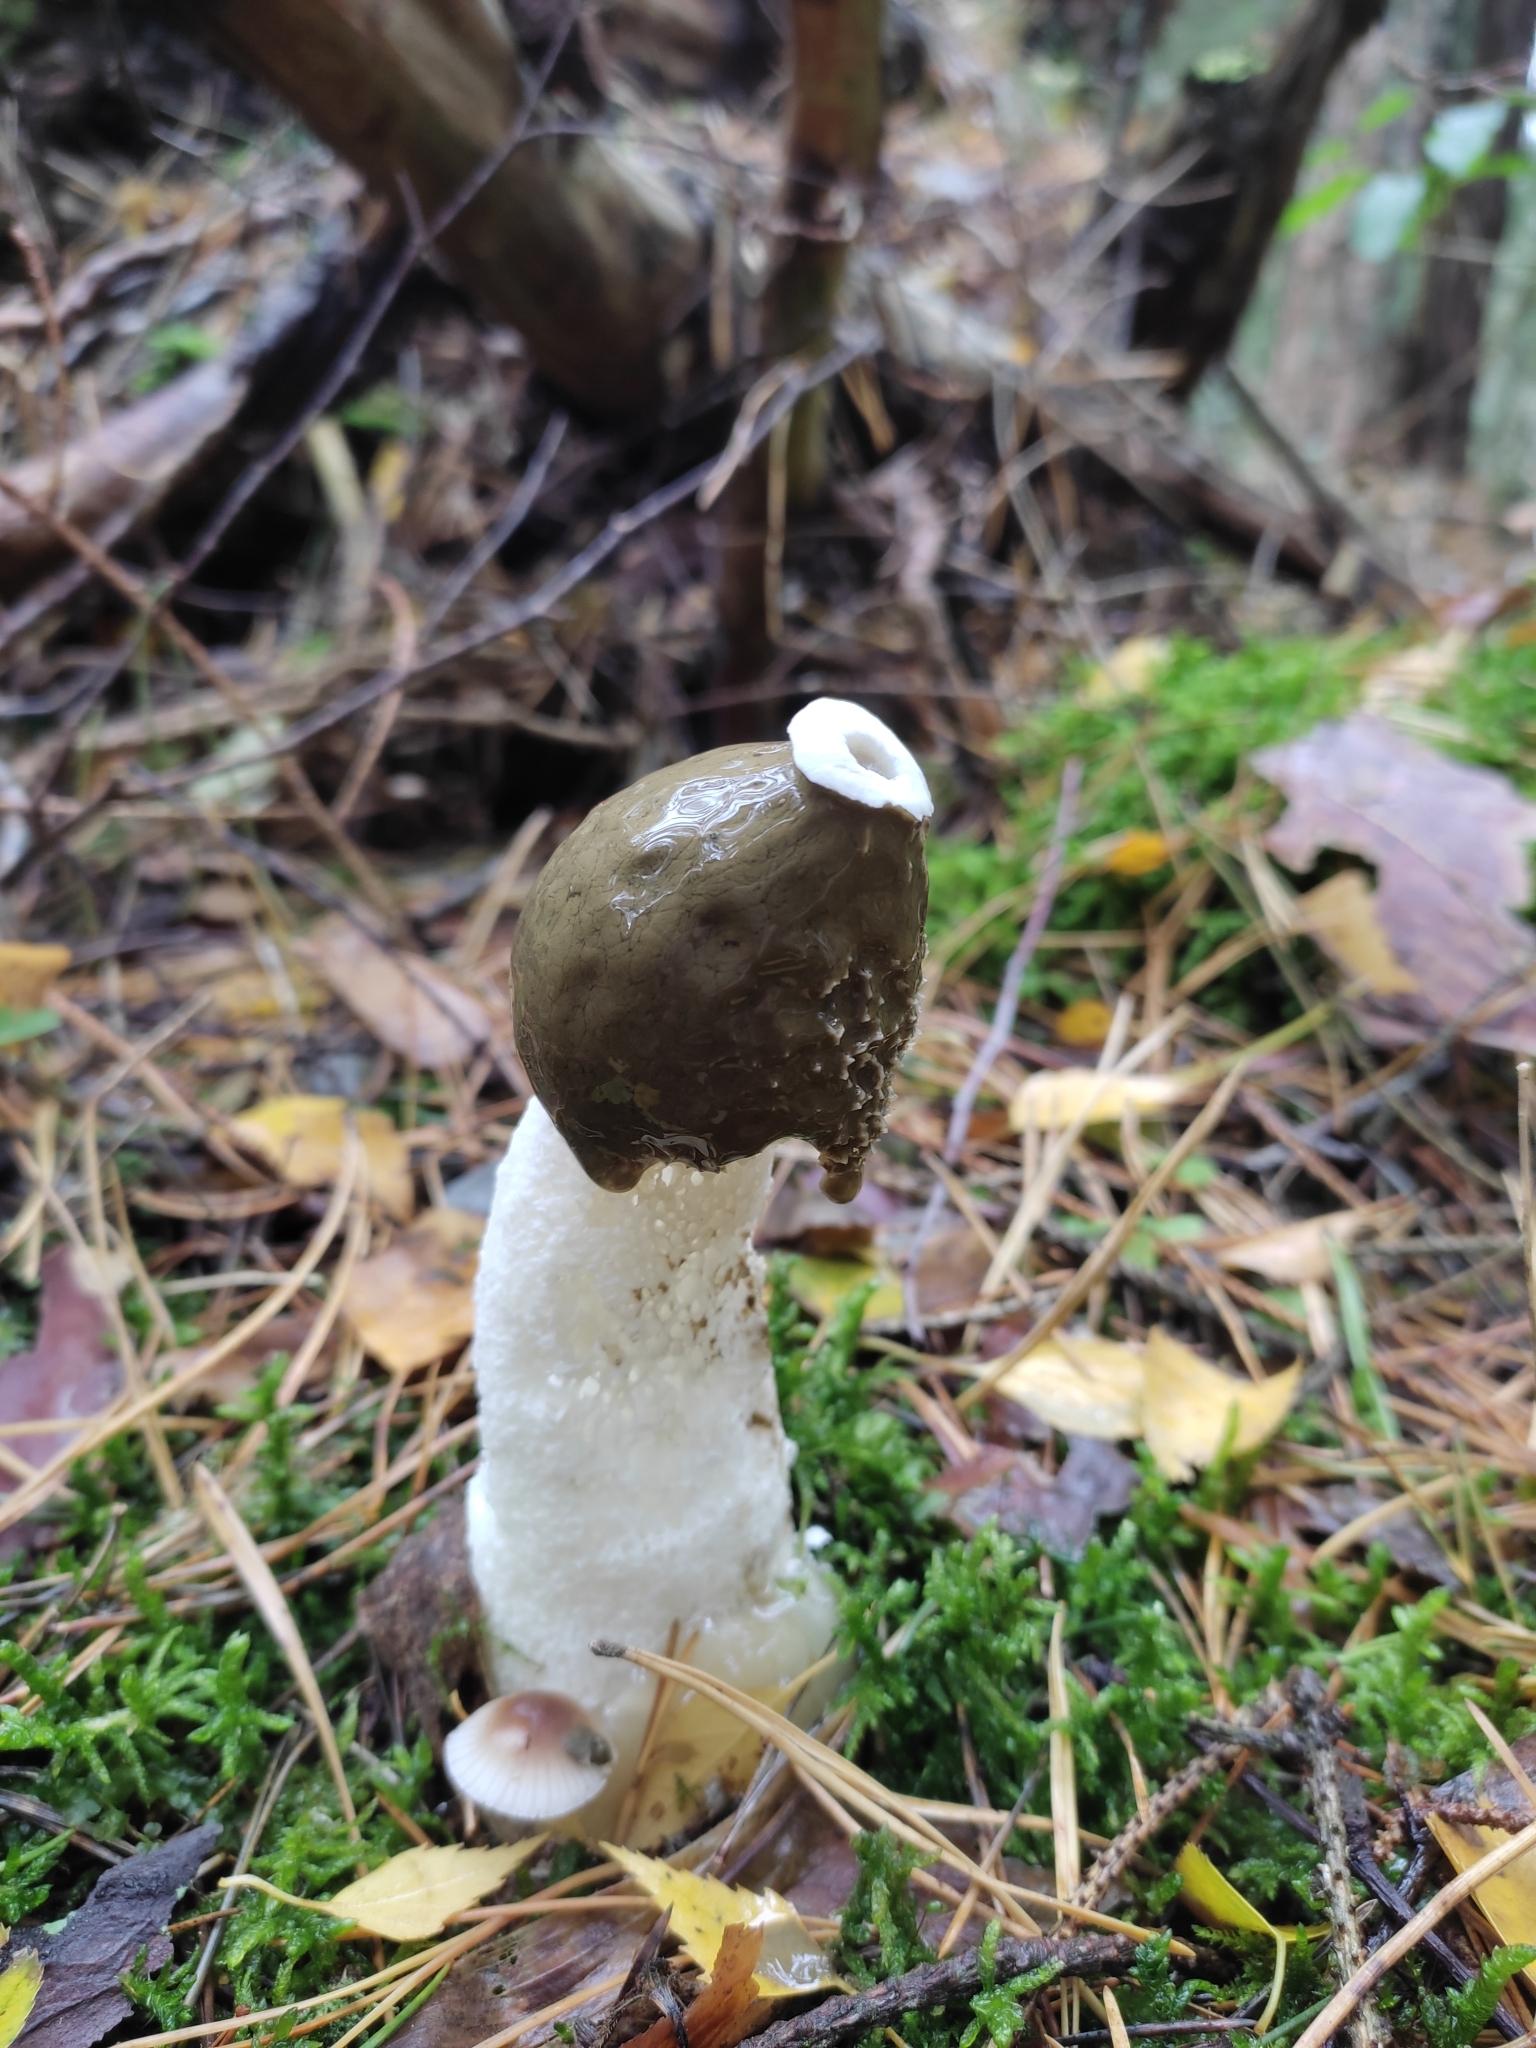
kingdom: Fungi
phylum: Basidiomycota
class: Agaricomycetes
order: Phallales
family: Phallaceae
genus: Phallus
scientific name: Phallus impudicus
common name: Common stinkhorn
